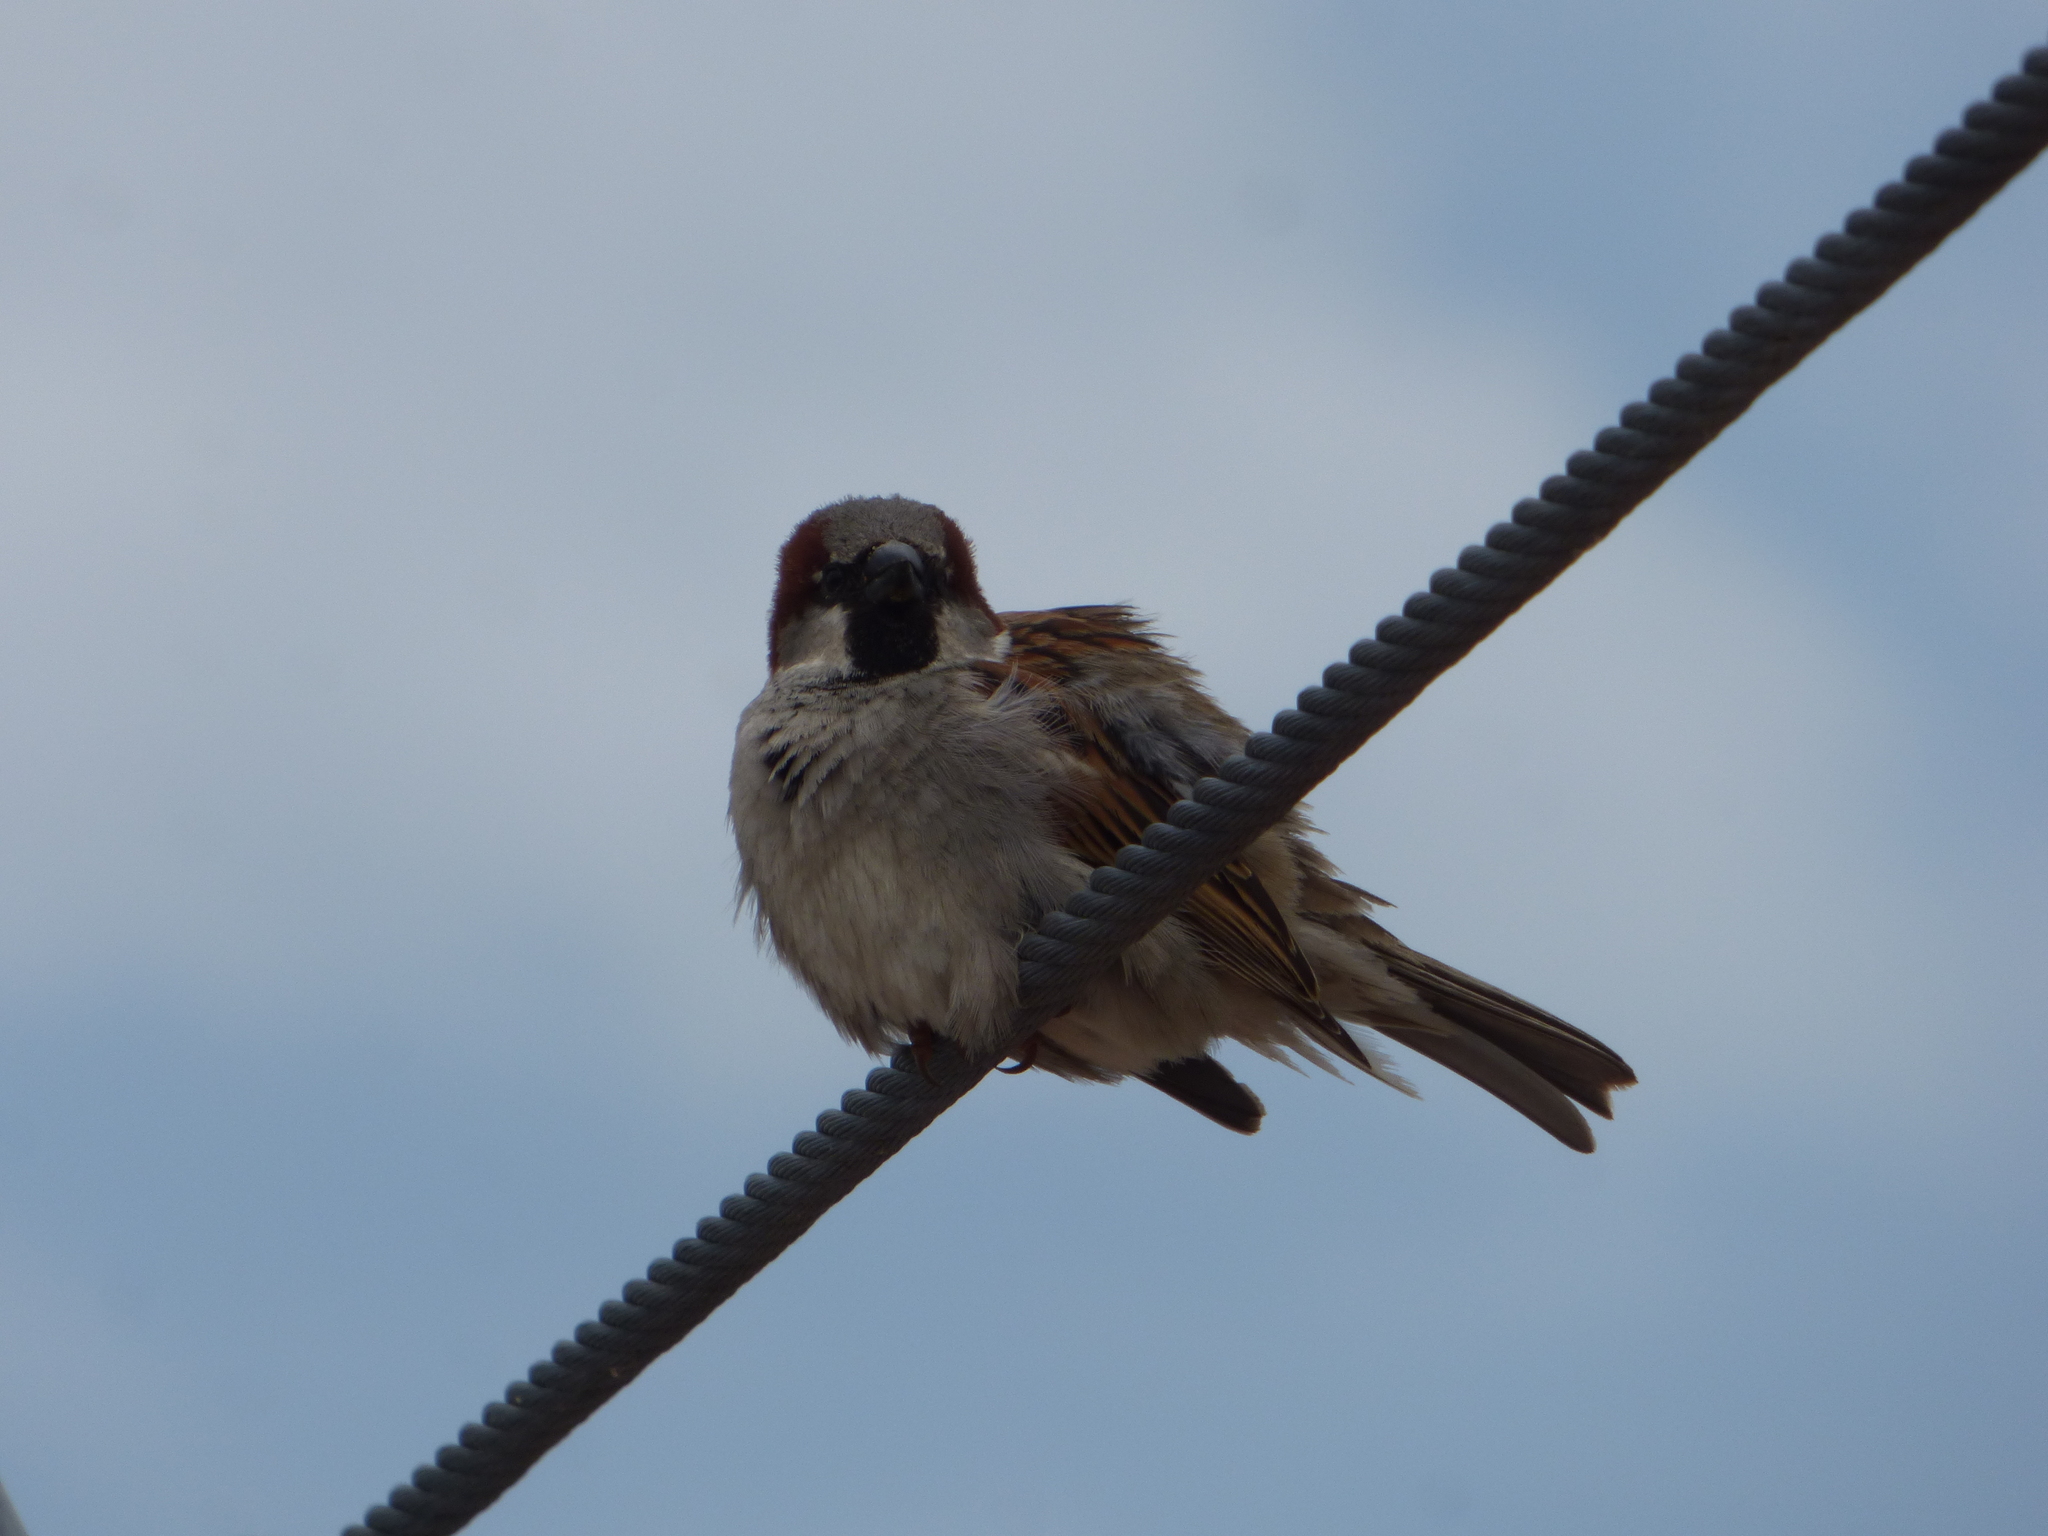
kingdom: Animalia
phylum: Chordata
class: Aves
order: Passeriformes
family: Passeridae
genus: Passer
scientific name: Passer domesticus
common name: House sparrow
